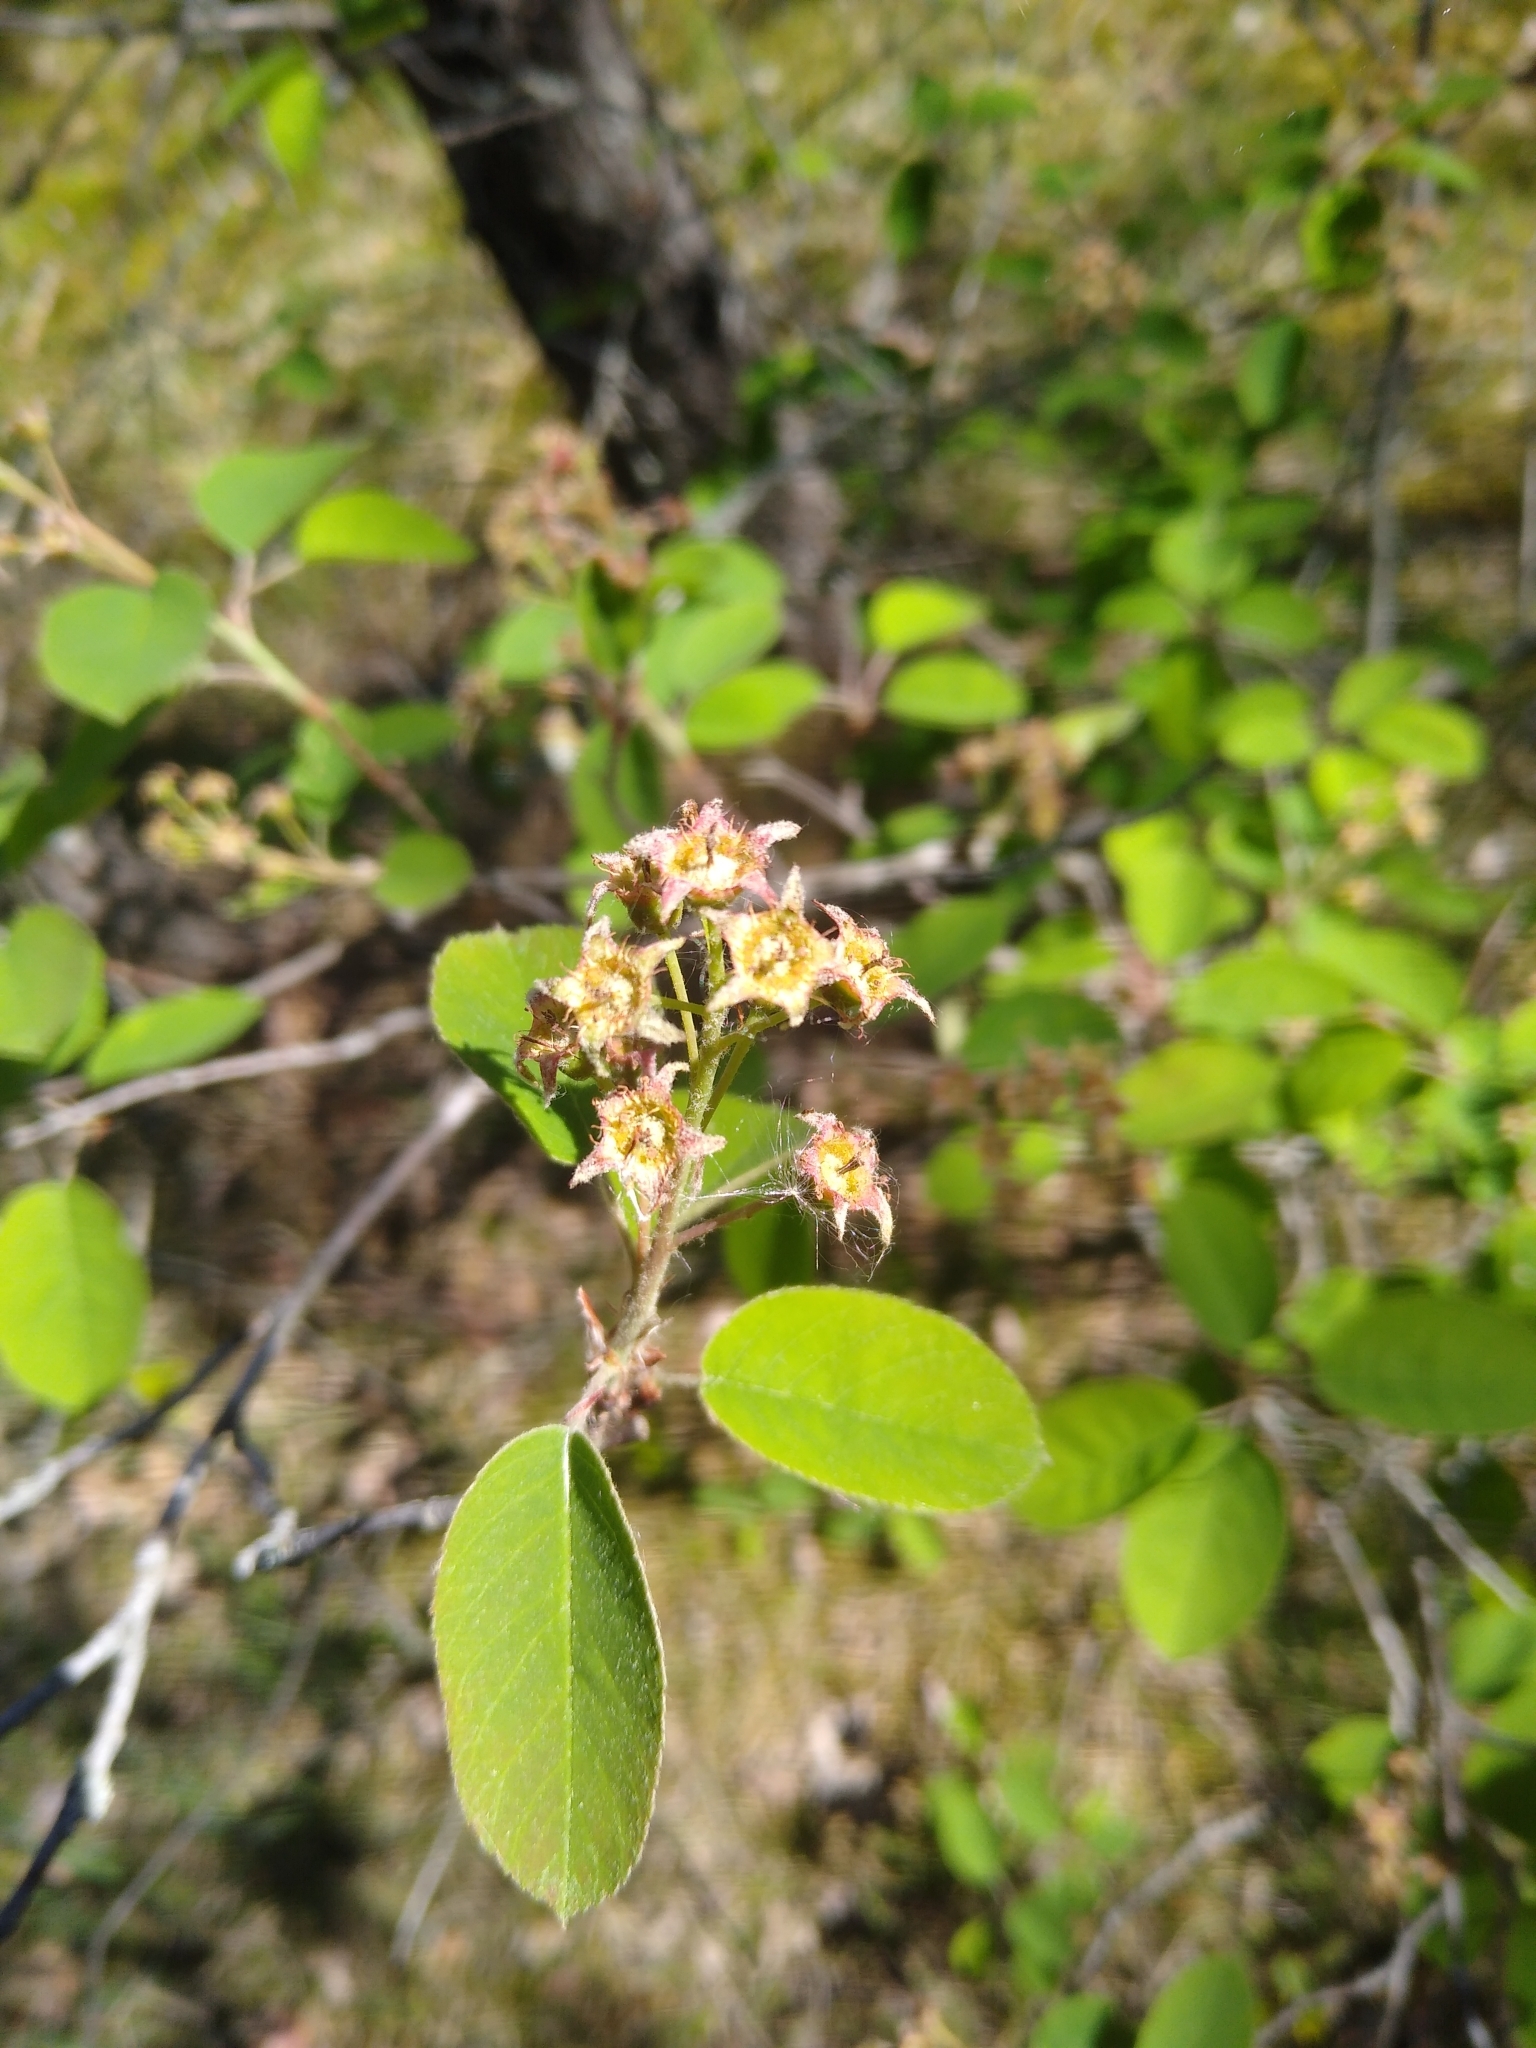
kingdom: Plantae
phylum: Tracheophyta
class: Magnoliopsida
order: Rosales
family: Rosaceae
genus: Amelanchier
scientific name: Amelanchier
